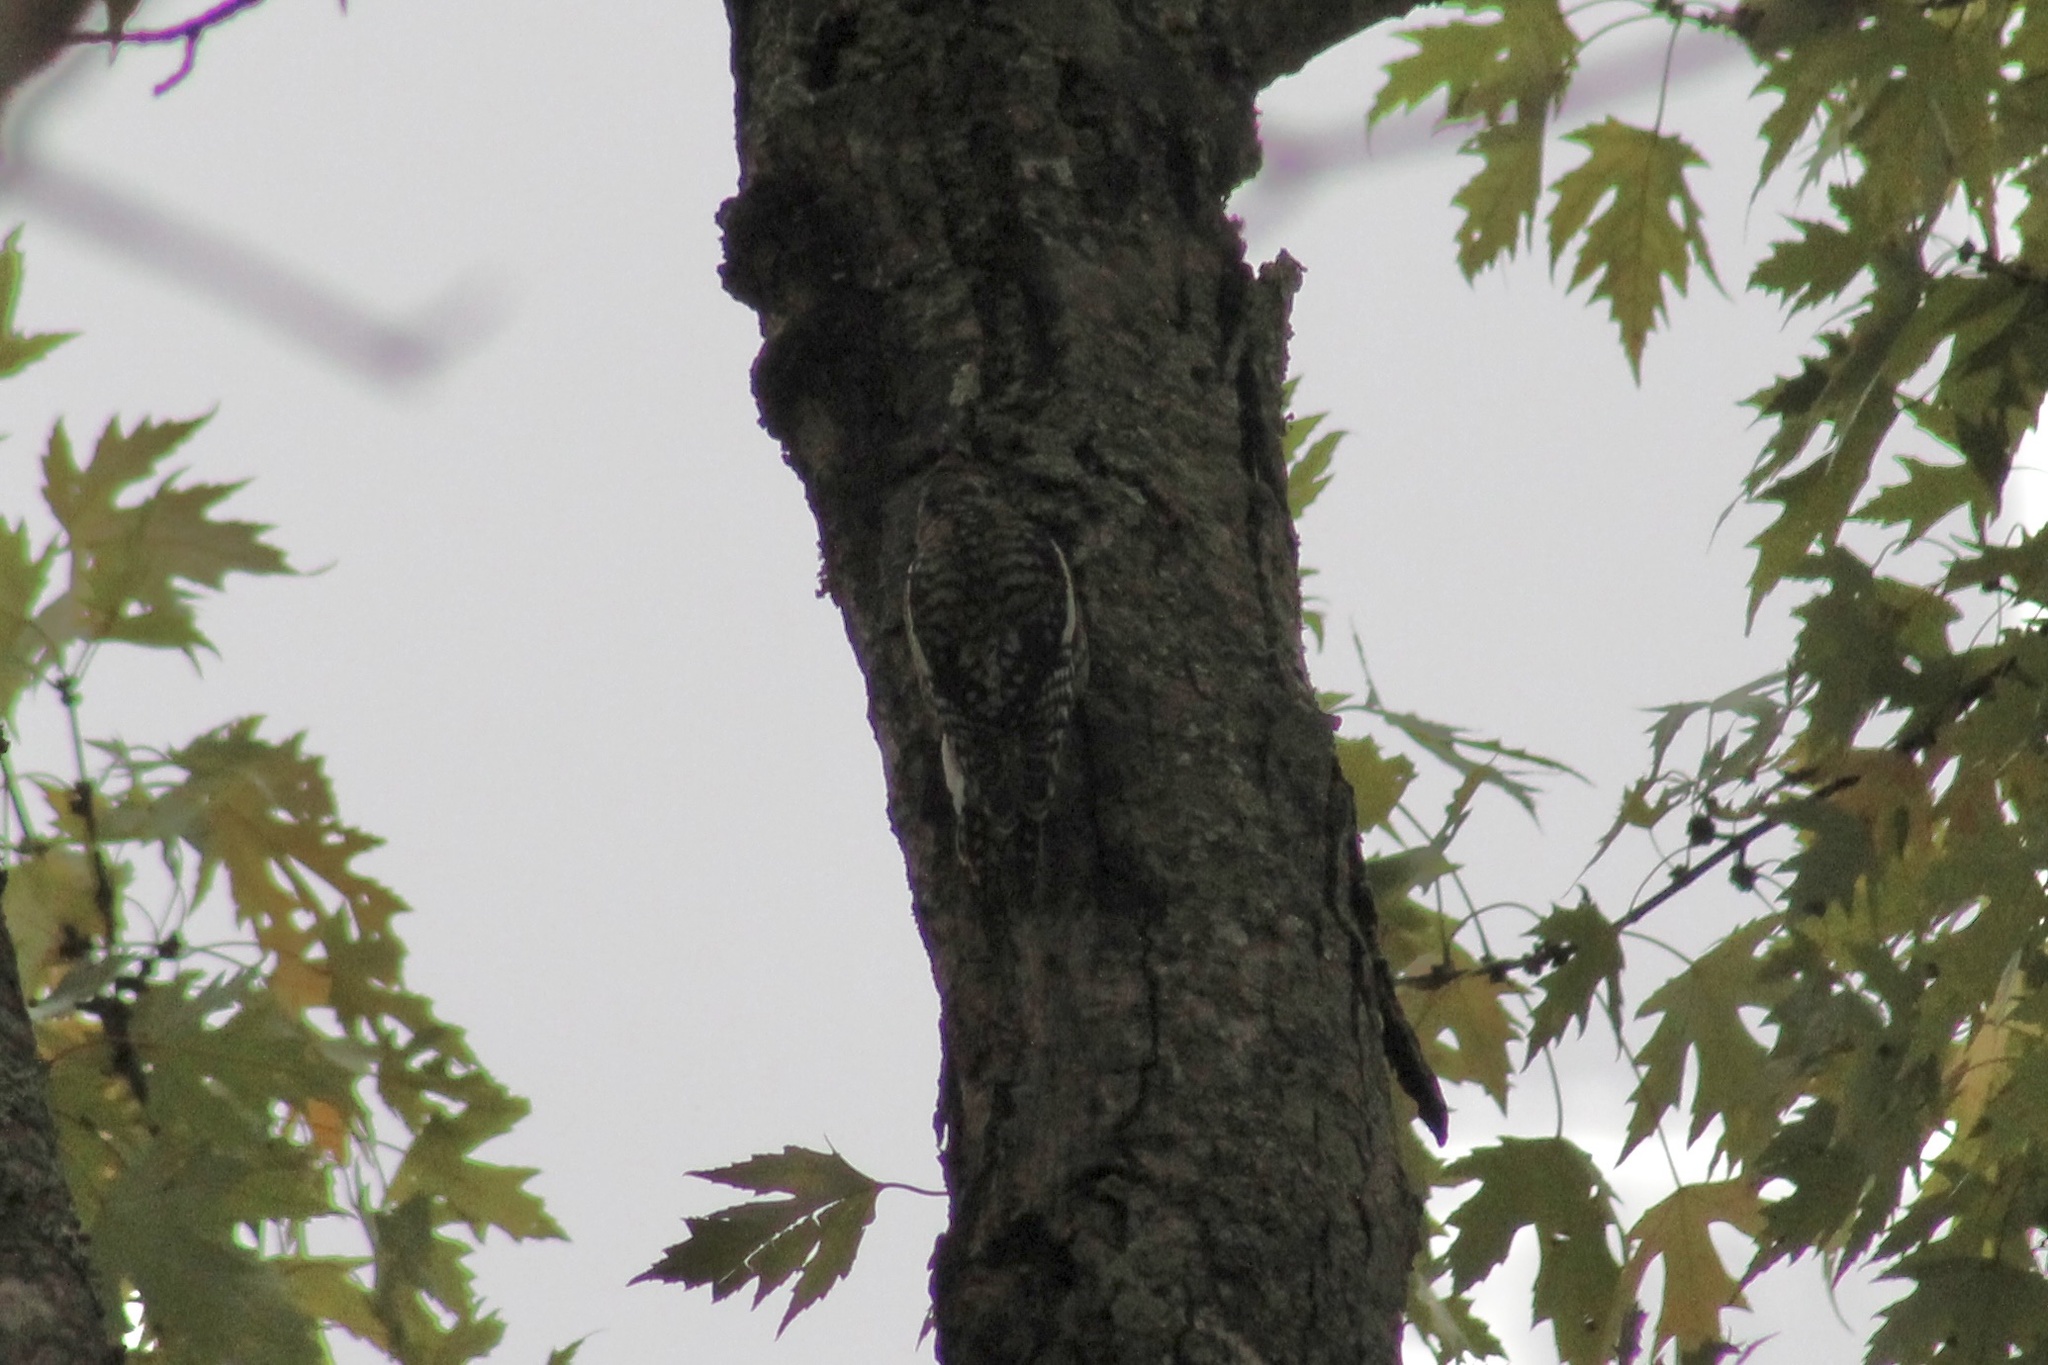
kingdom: Animalia
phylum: Chordata
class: Aves
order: Piciformes
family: Picidae
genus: Sphyrapicus
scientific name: Sphyrapicus varius
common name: Yellow-bellied sapsucker
